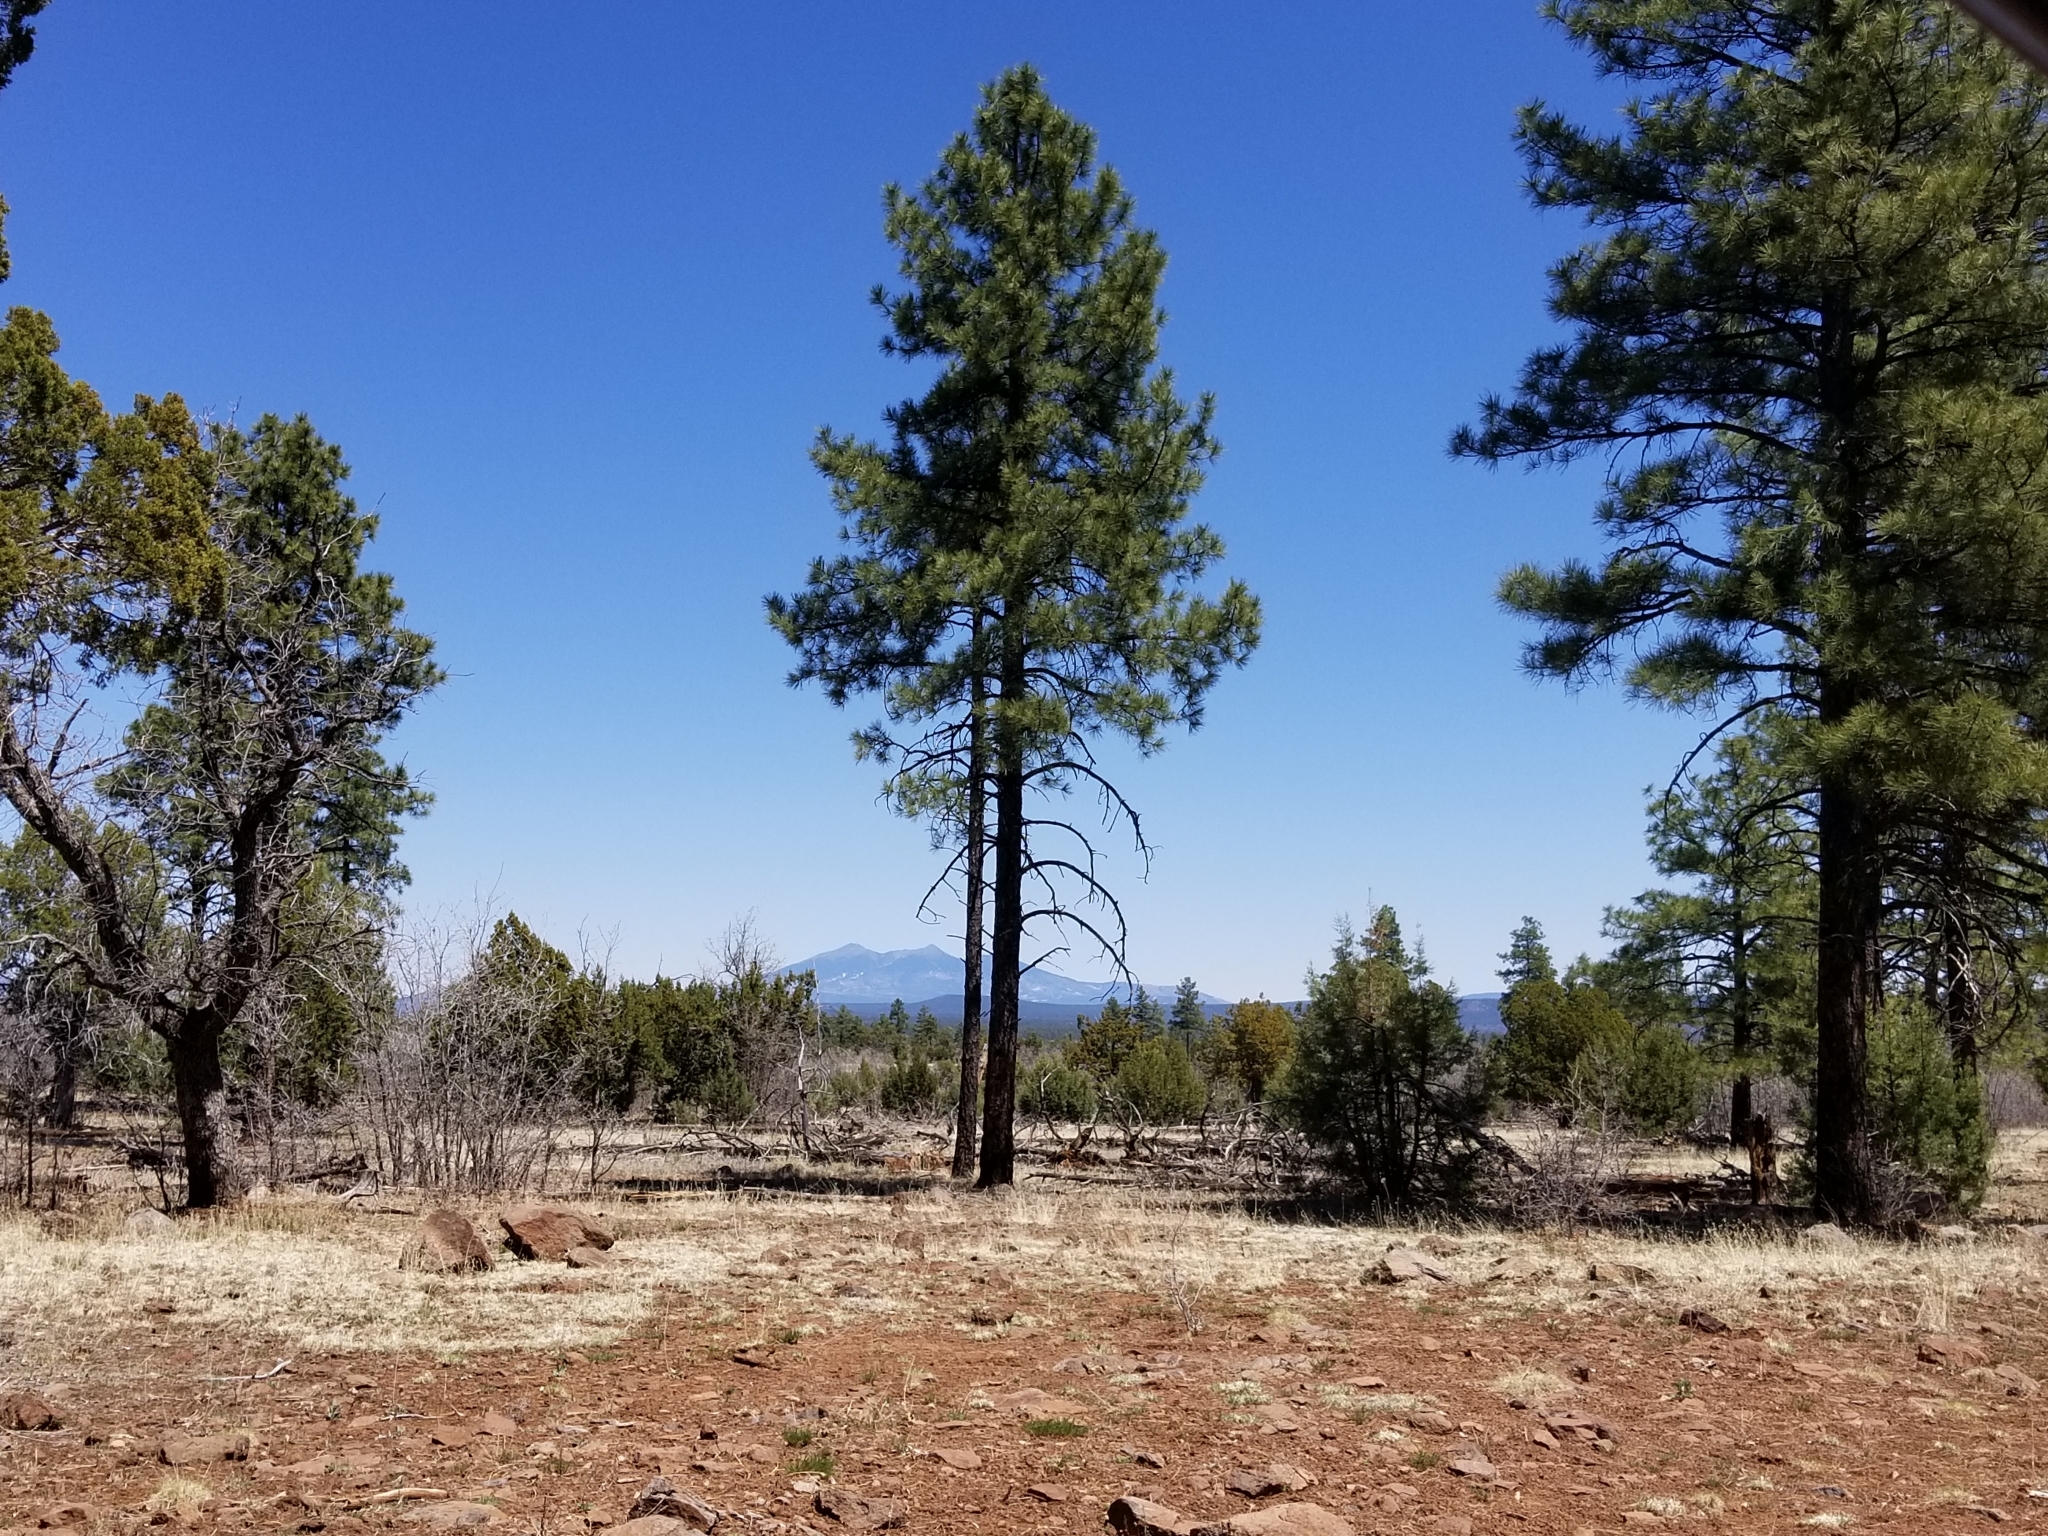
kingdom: Plantae
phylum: Tracheophyta
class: Pinopsida
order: Pinales
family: Pinaceae
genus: Pinus
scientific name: Pinus ponderosa
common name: Western yellow-pine
